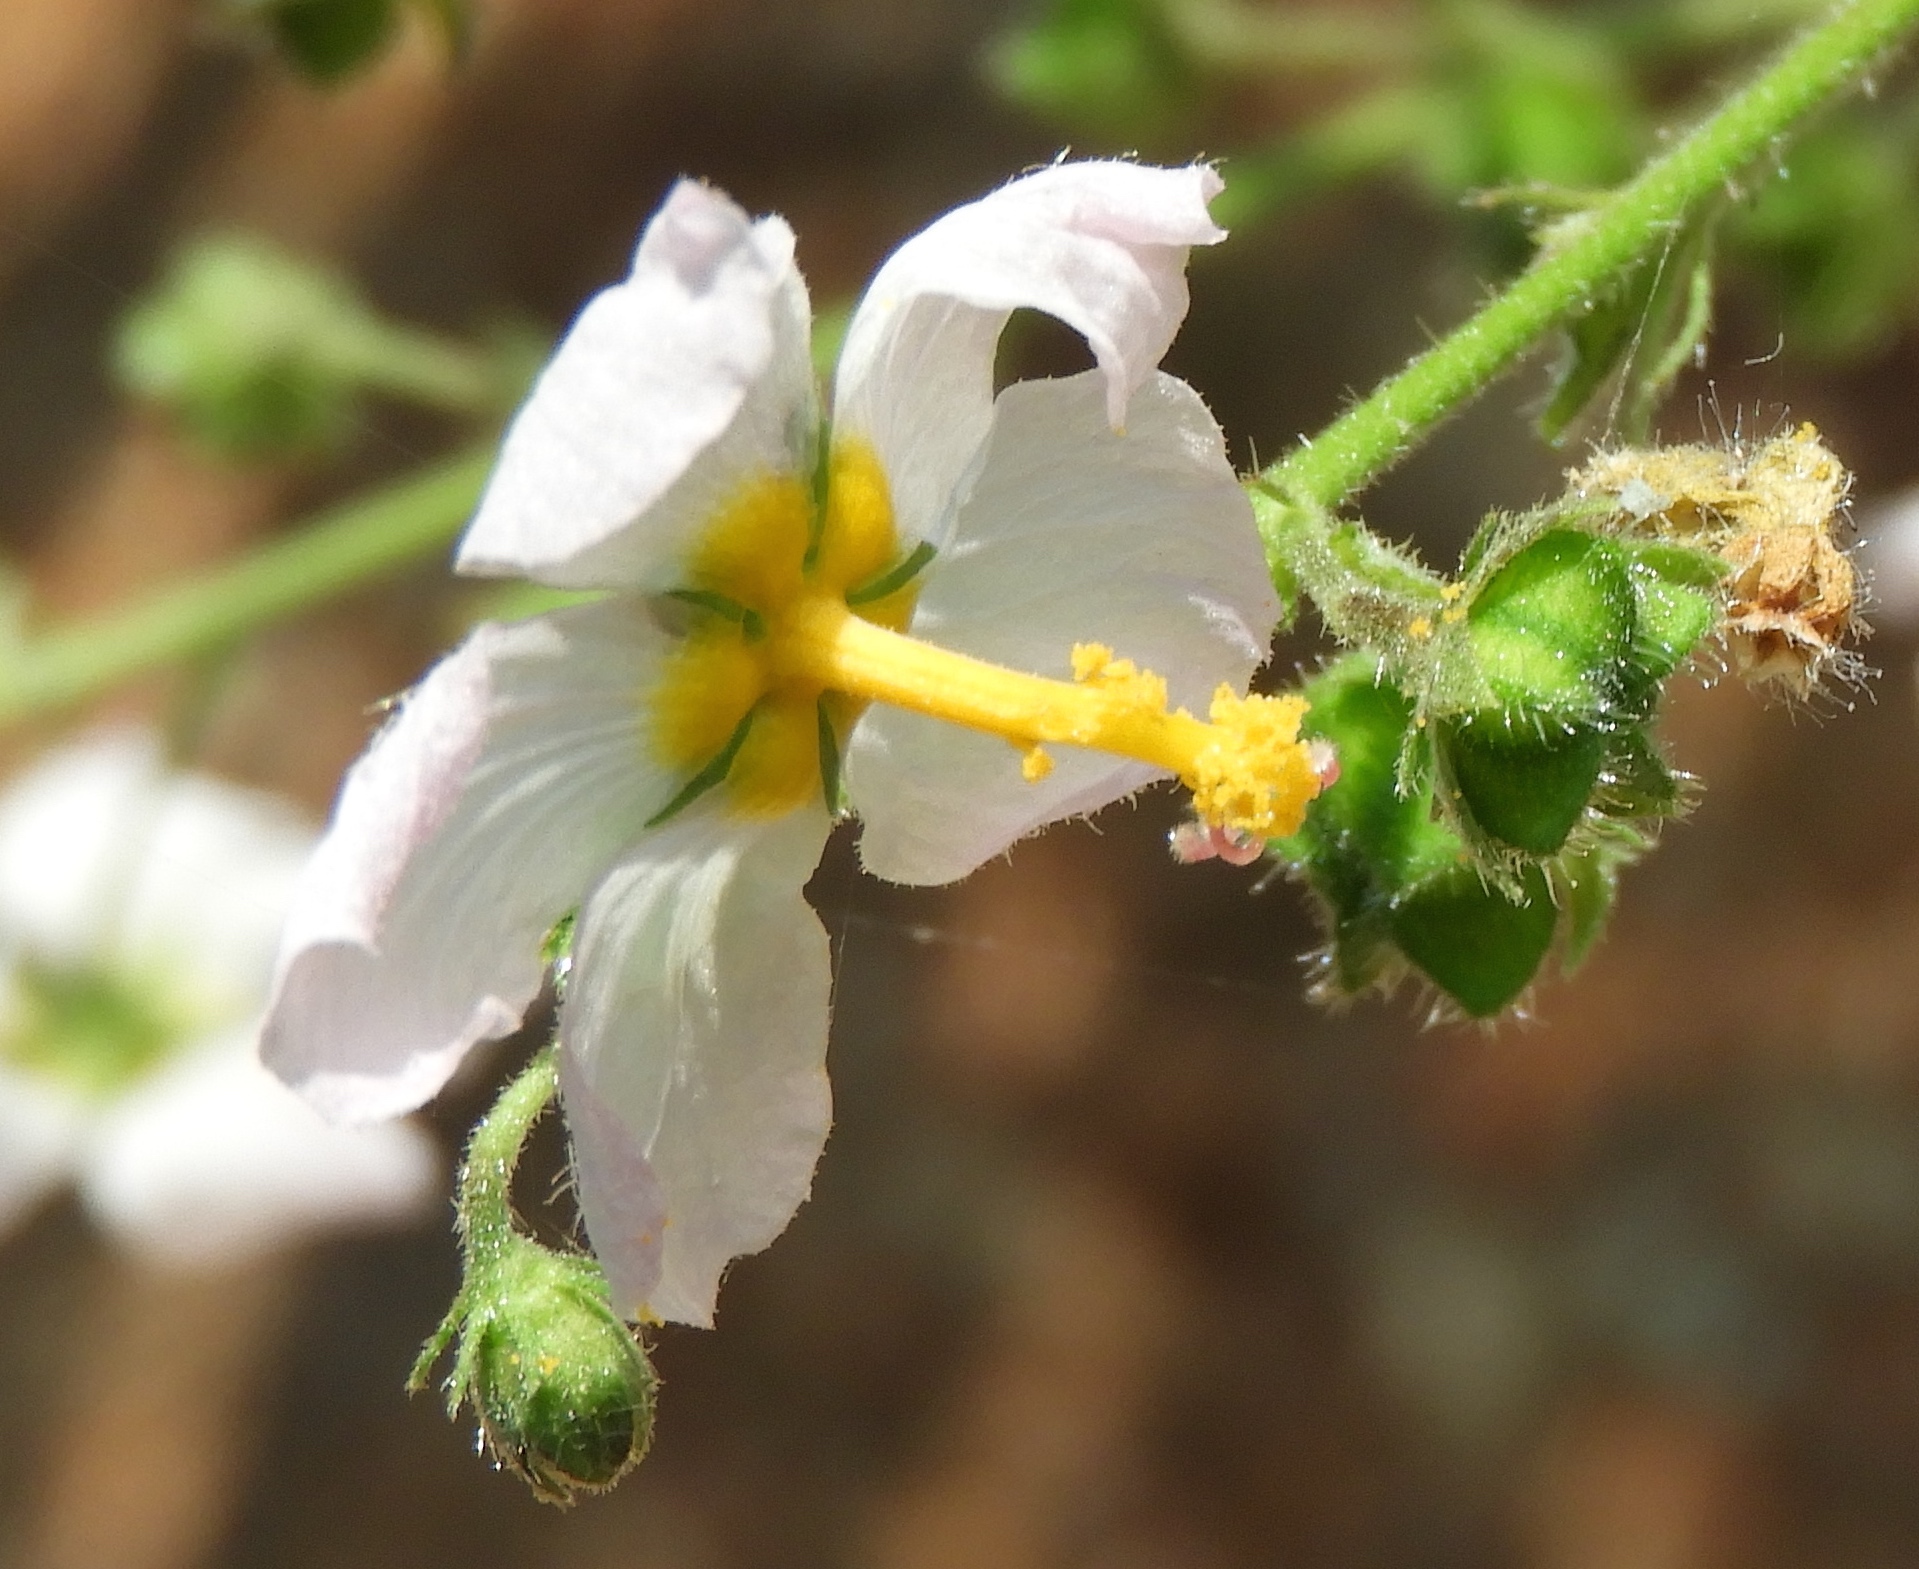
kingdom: Plantae
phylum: Tracheophyta
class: Magnoliopsida
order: Malvales
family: Malvaceae
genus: Kosteletzkya
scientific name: Kosteletzkya depressa
